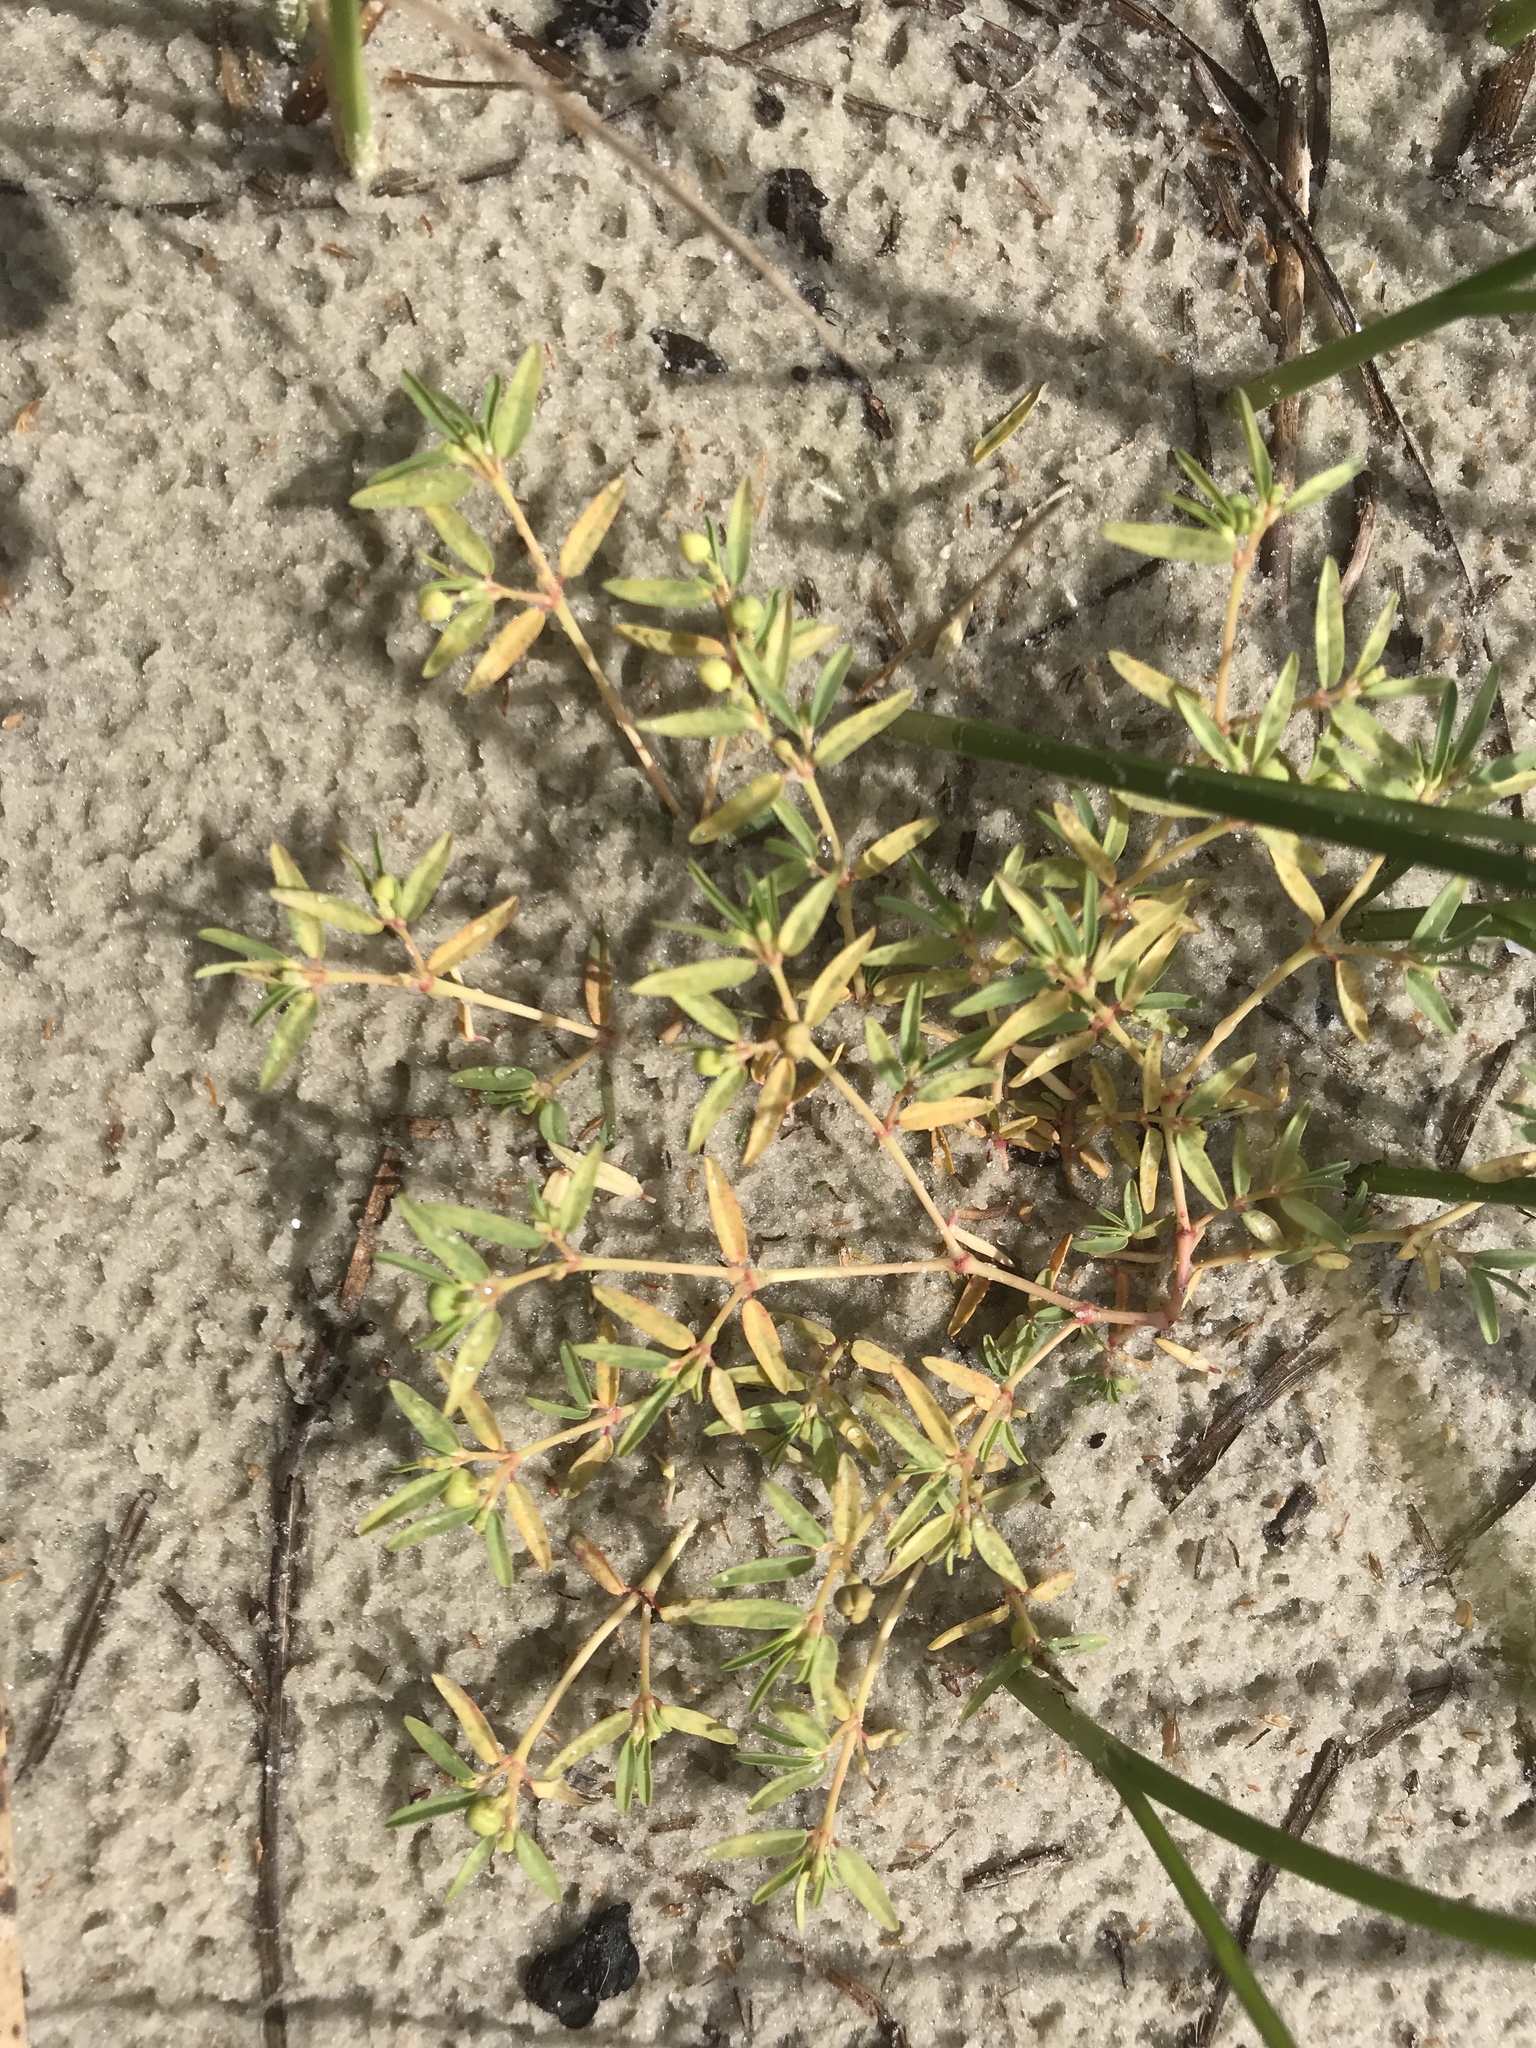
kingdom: Plantae
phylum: Tracheophyta
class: Magnoliopsida
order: Malpighiales
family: Euphorbiaceae
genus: Euphorbia
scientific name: Euphorbia polygonifolia
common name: Knotweed spurge
